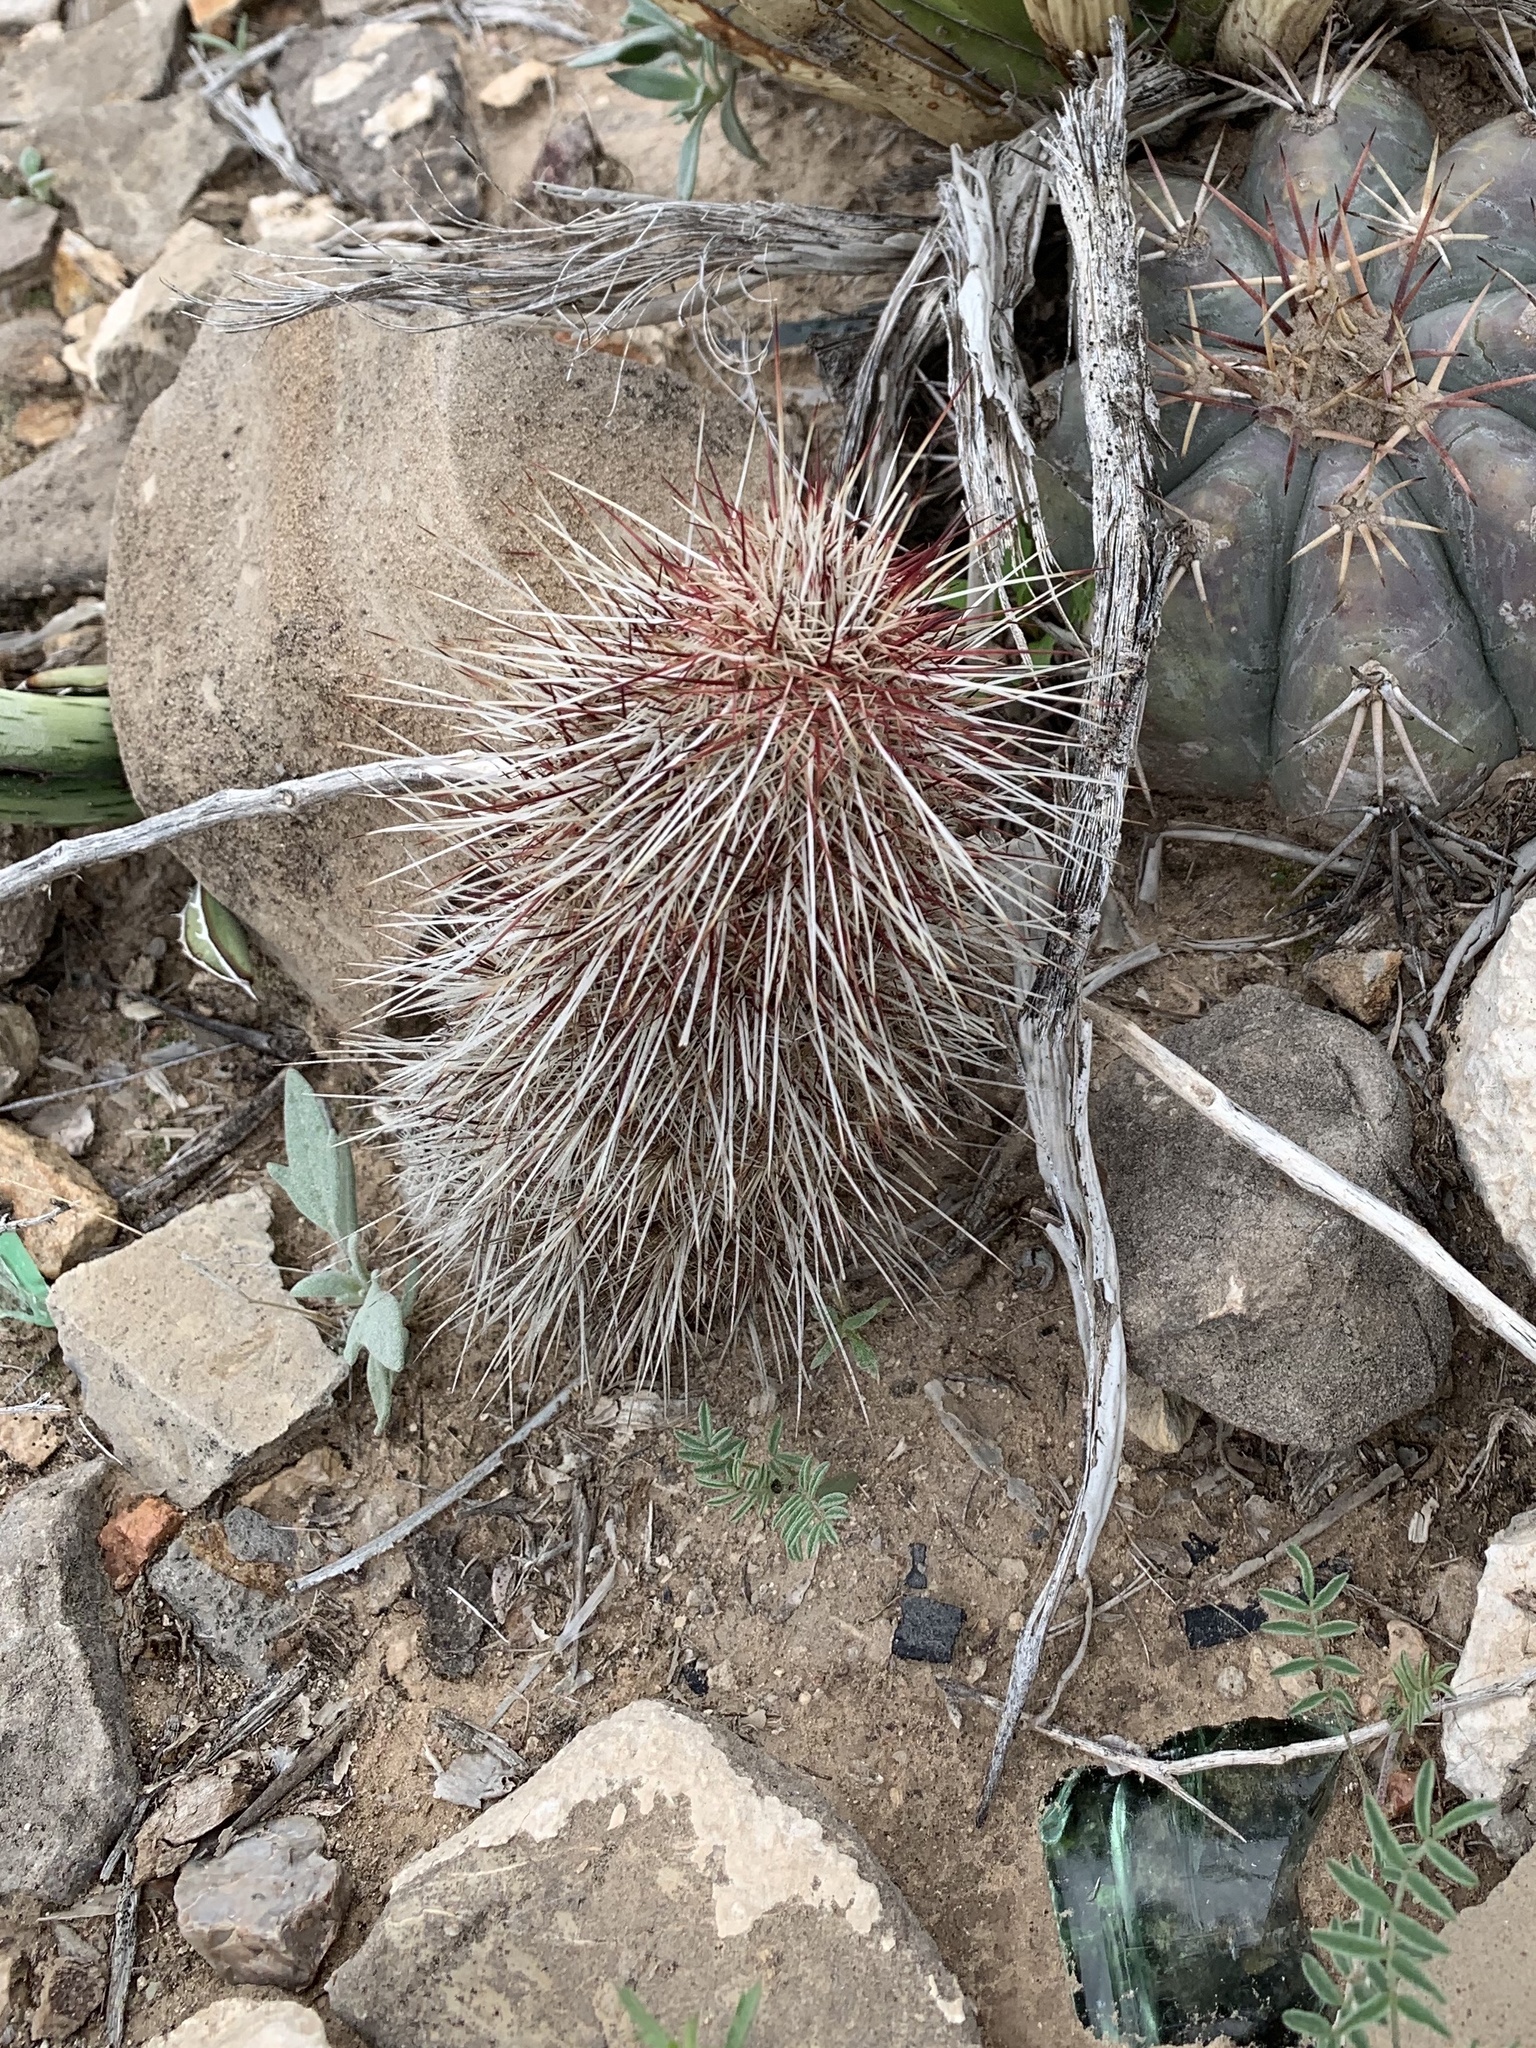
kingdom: Plantae
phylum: Tracheophyta
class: Magnoliopsida
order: Caryophyllales
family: Cactaceae
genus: Echinocereus
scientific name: Echinocereus viridiflorus
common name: Nylon hedgehog cactus
